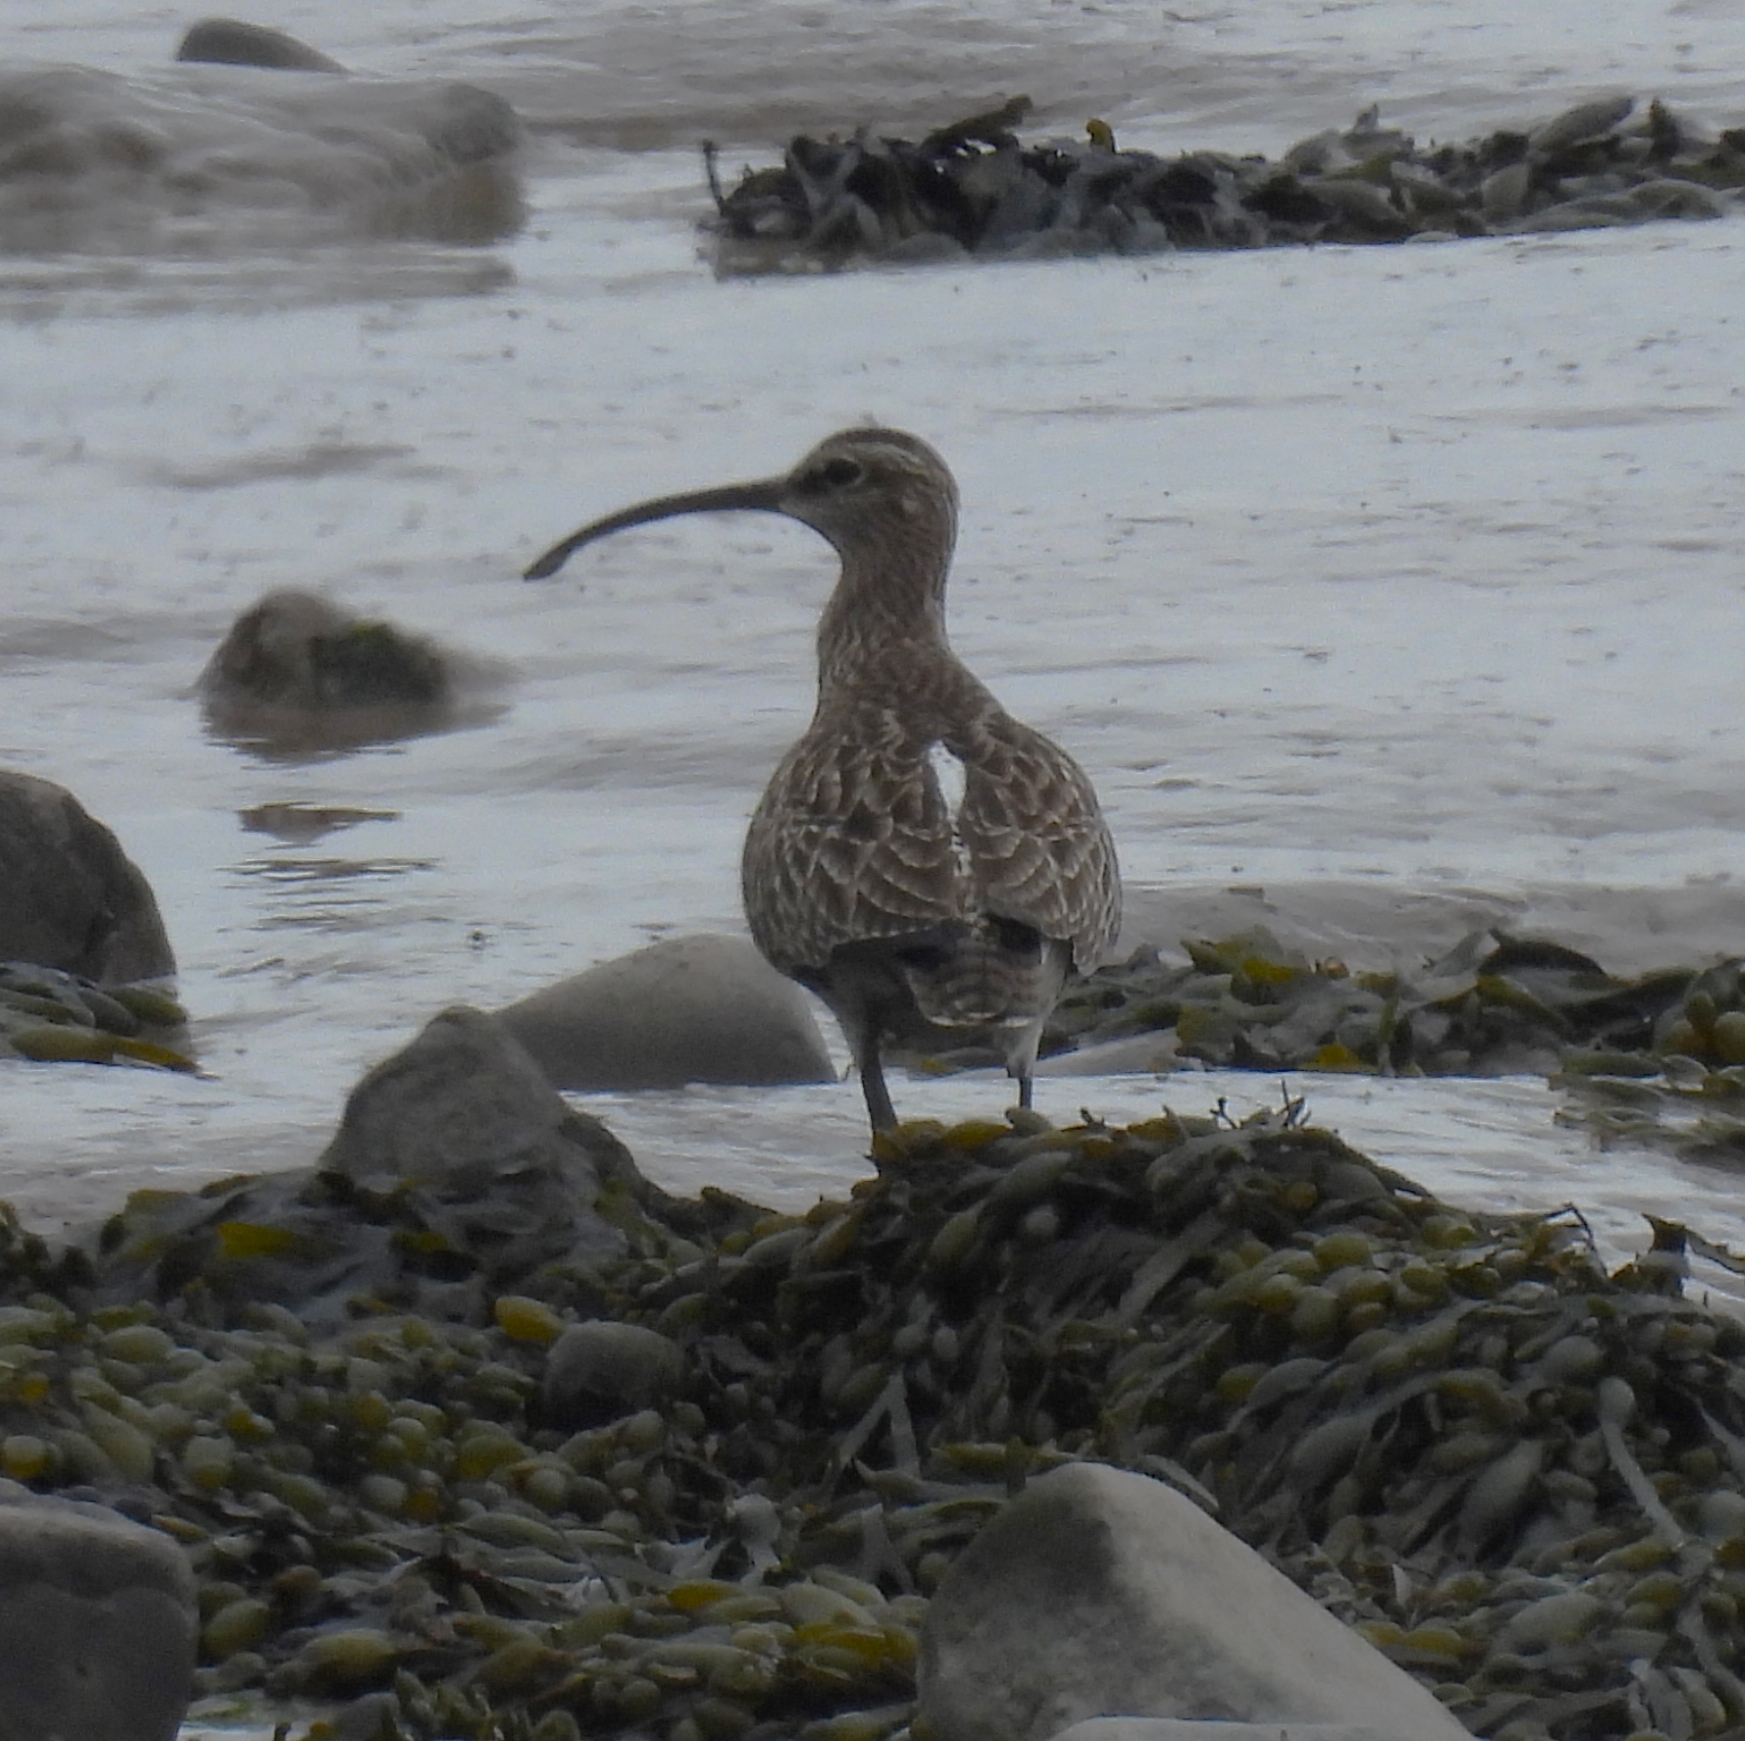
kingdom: Animalia
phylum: Chordata
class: Aves
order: Charadriiformes
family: Scolopacidae
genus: Numenius
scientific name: Numenius phaeopus
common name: Whimbrel
